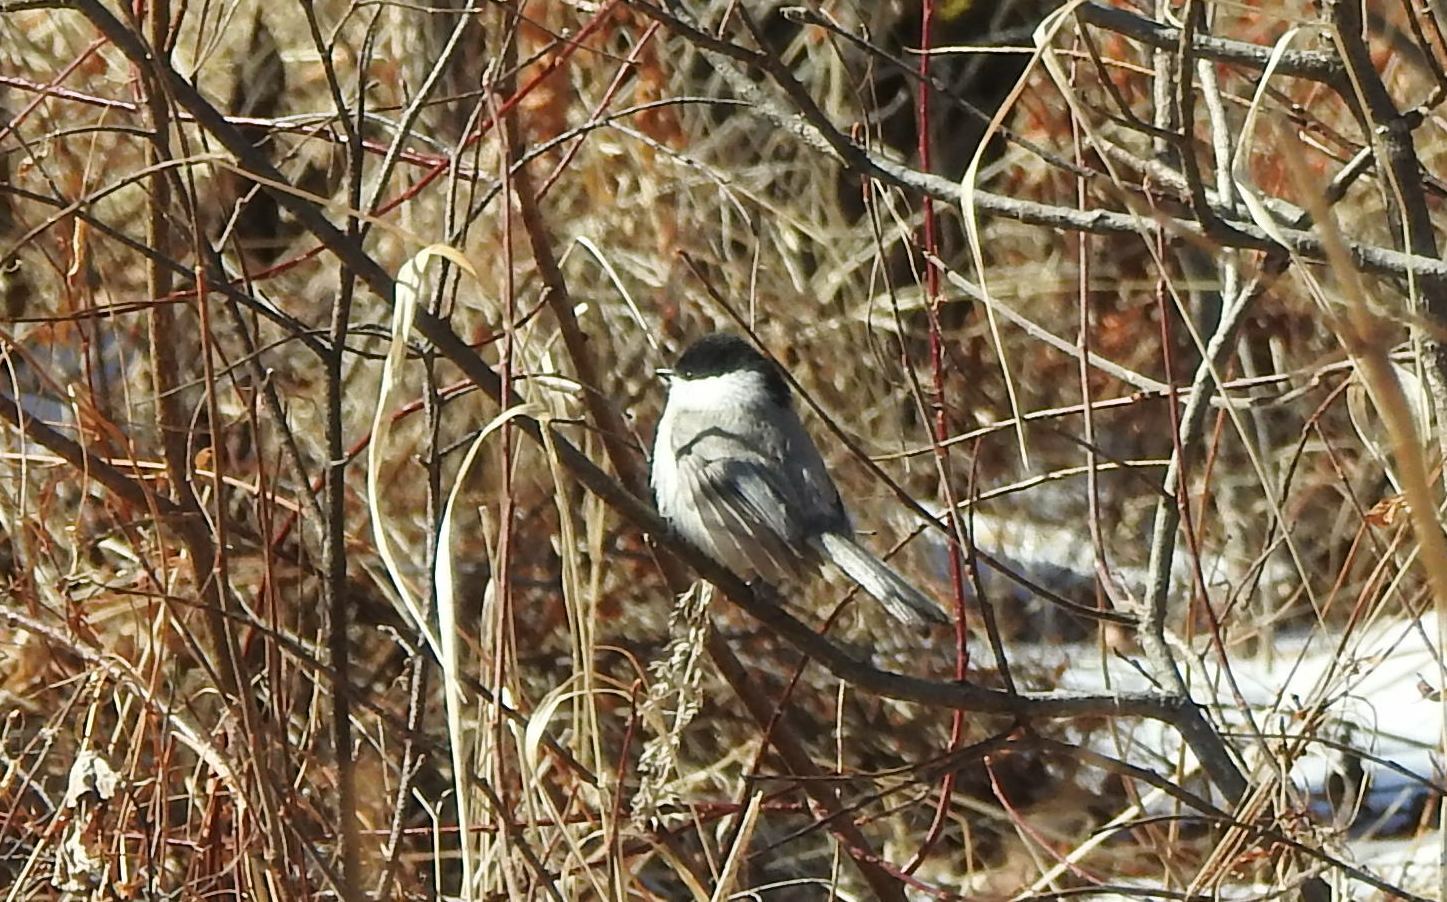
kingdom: Animalia
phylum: Chordata
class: Aves
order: Passeriformes
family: Paridae
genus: Poecile
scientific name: Poecile palustris
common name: Marsh tit
